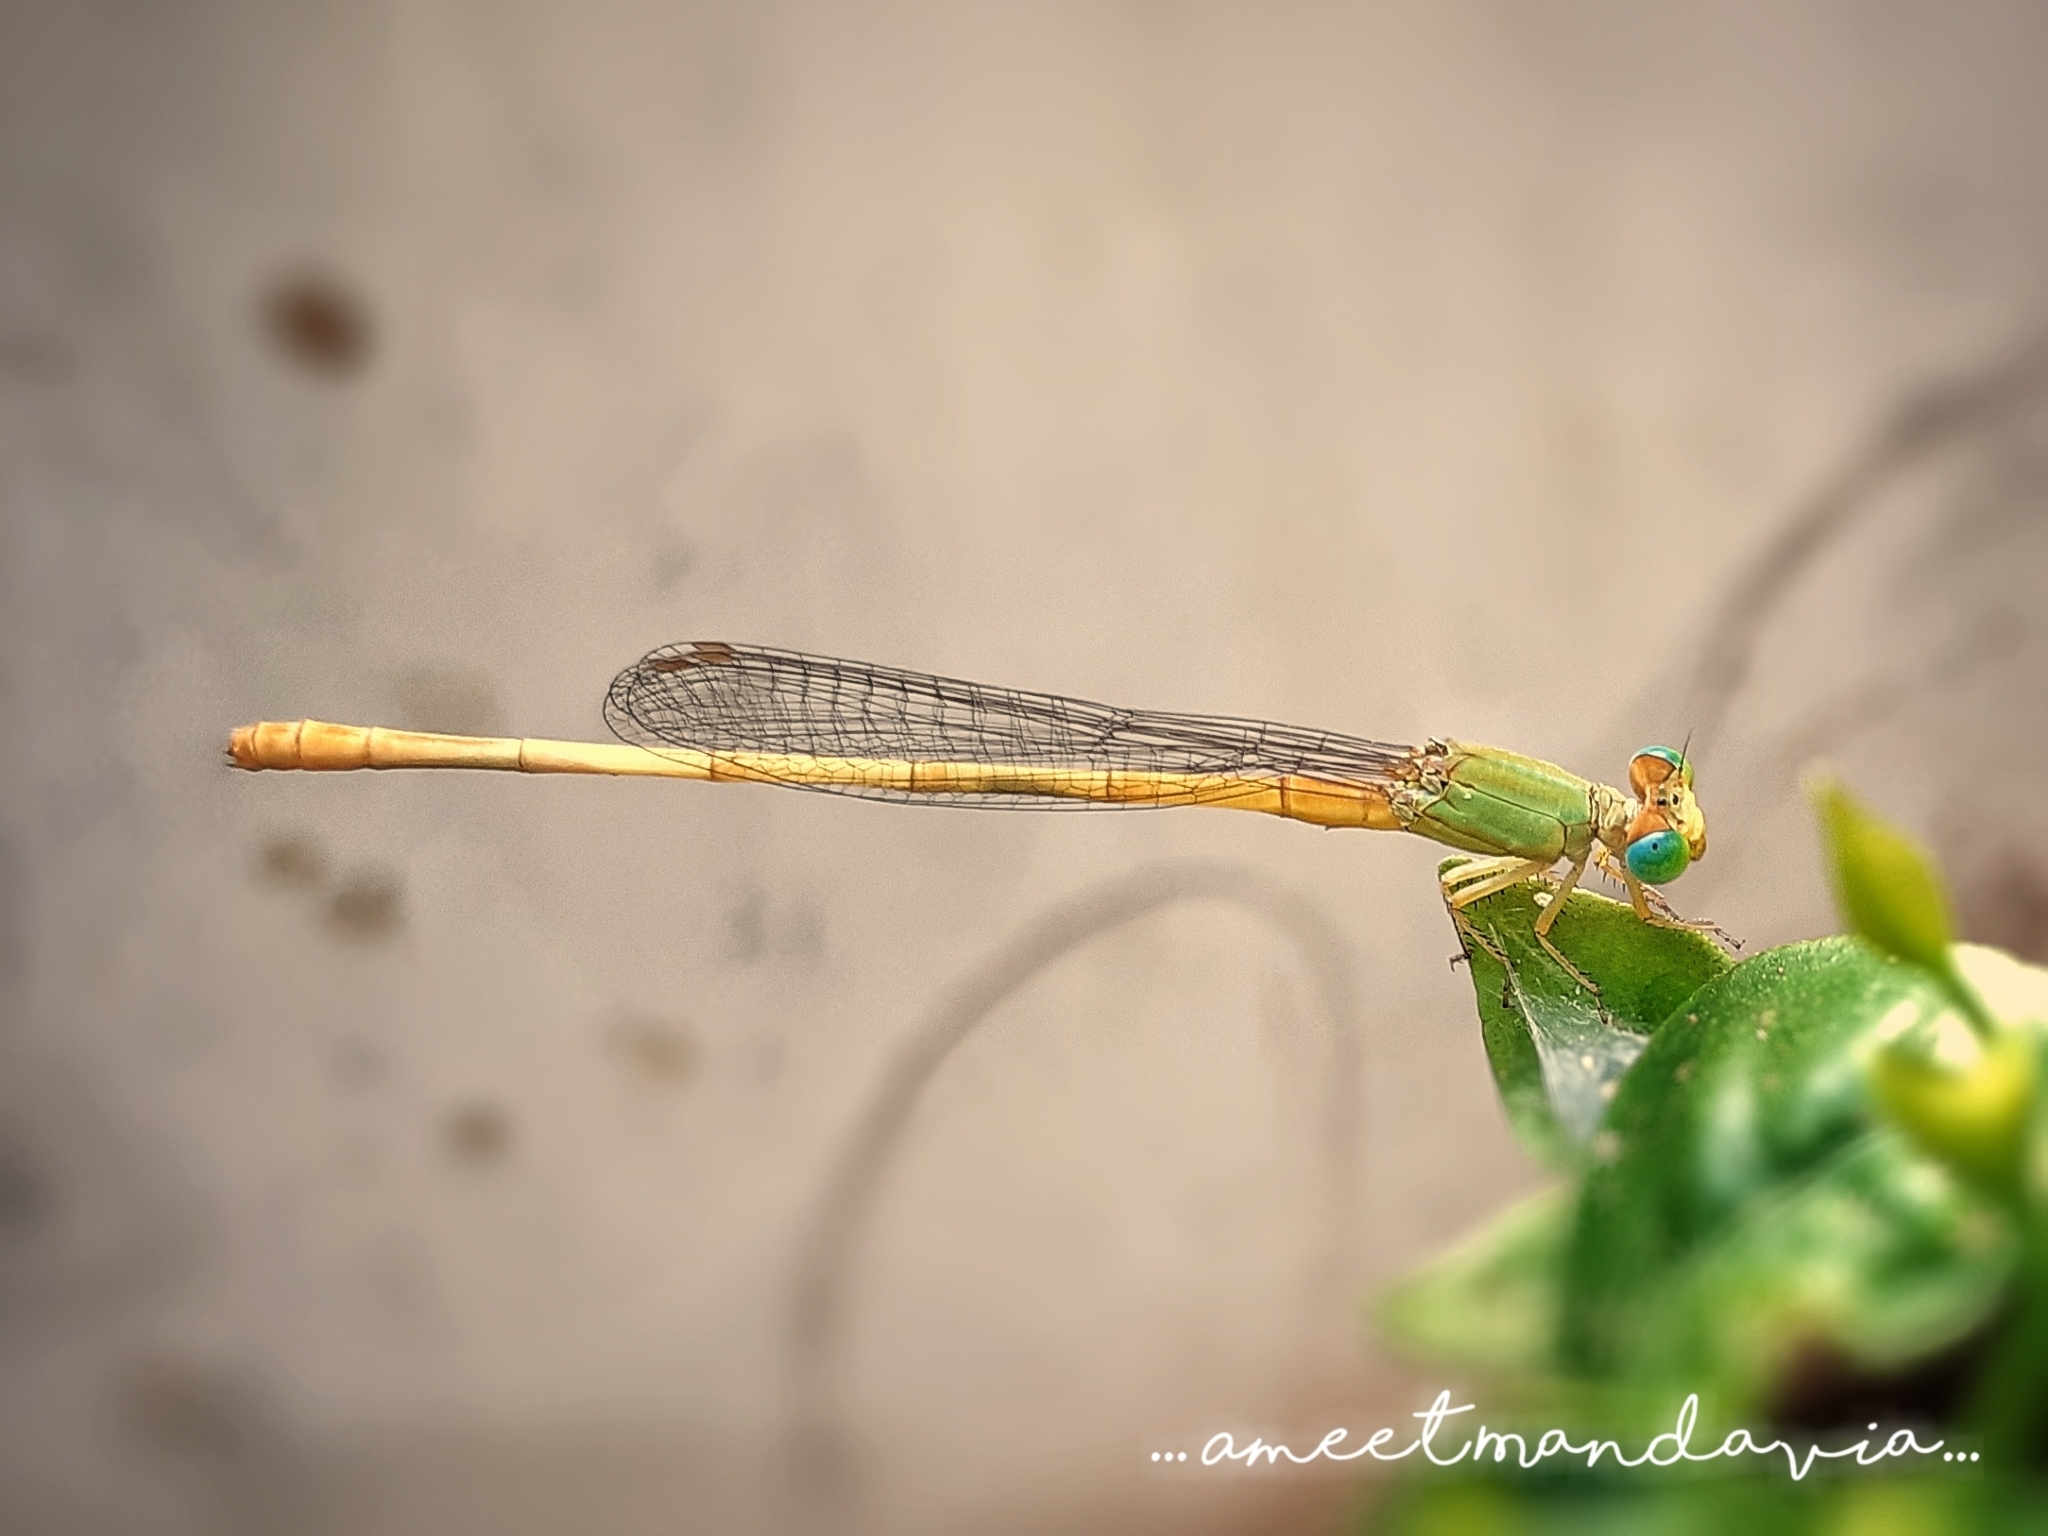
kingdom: Animalia
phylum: Arthropoda
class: Insecta
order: Odonata
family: Coenagrionidae
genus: Ceriagrion
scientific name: Ceriagrion coromandelianum
